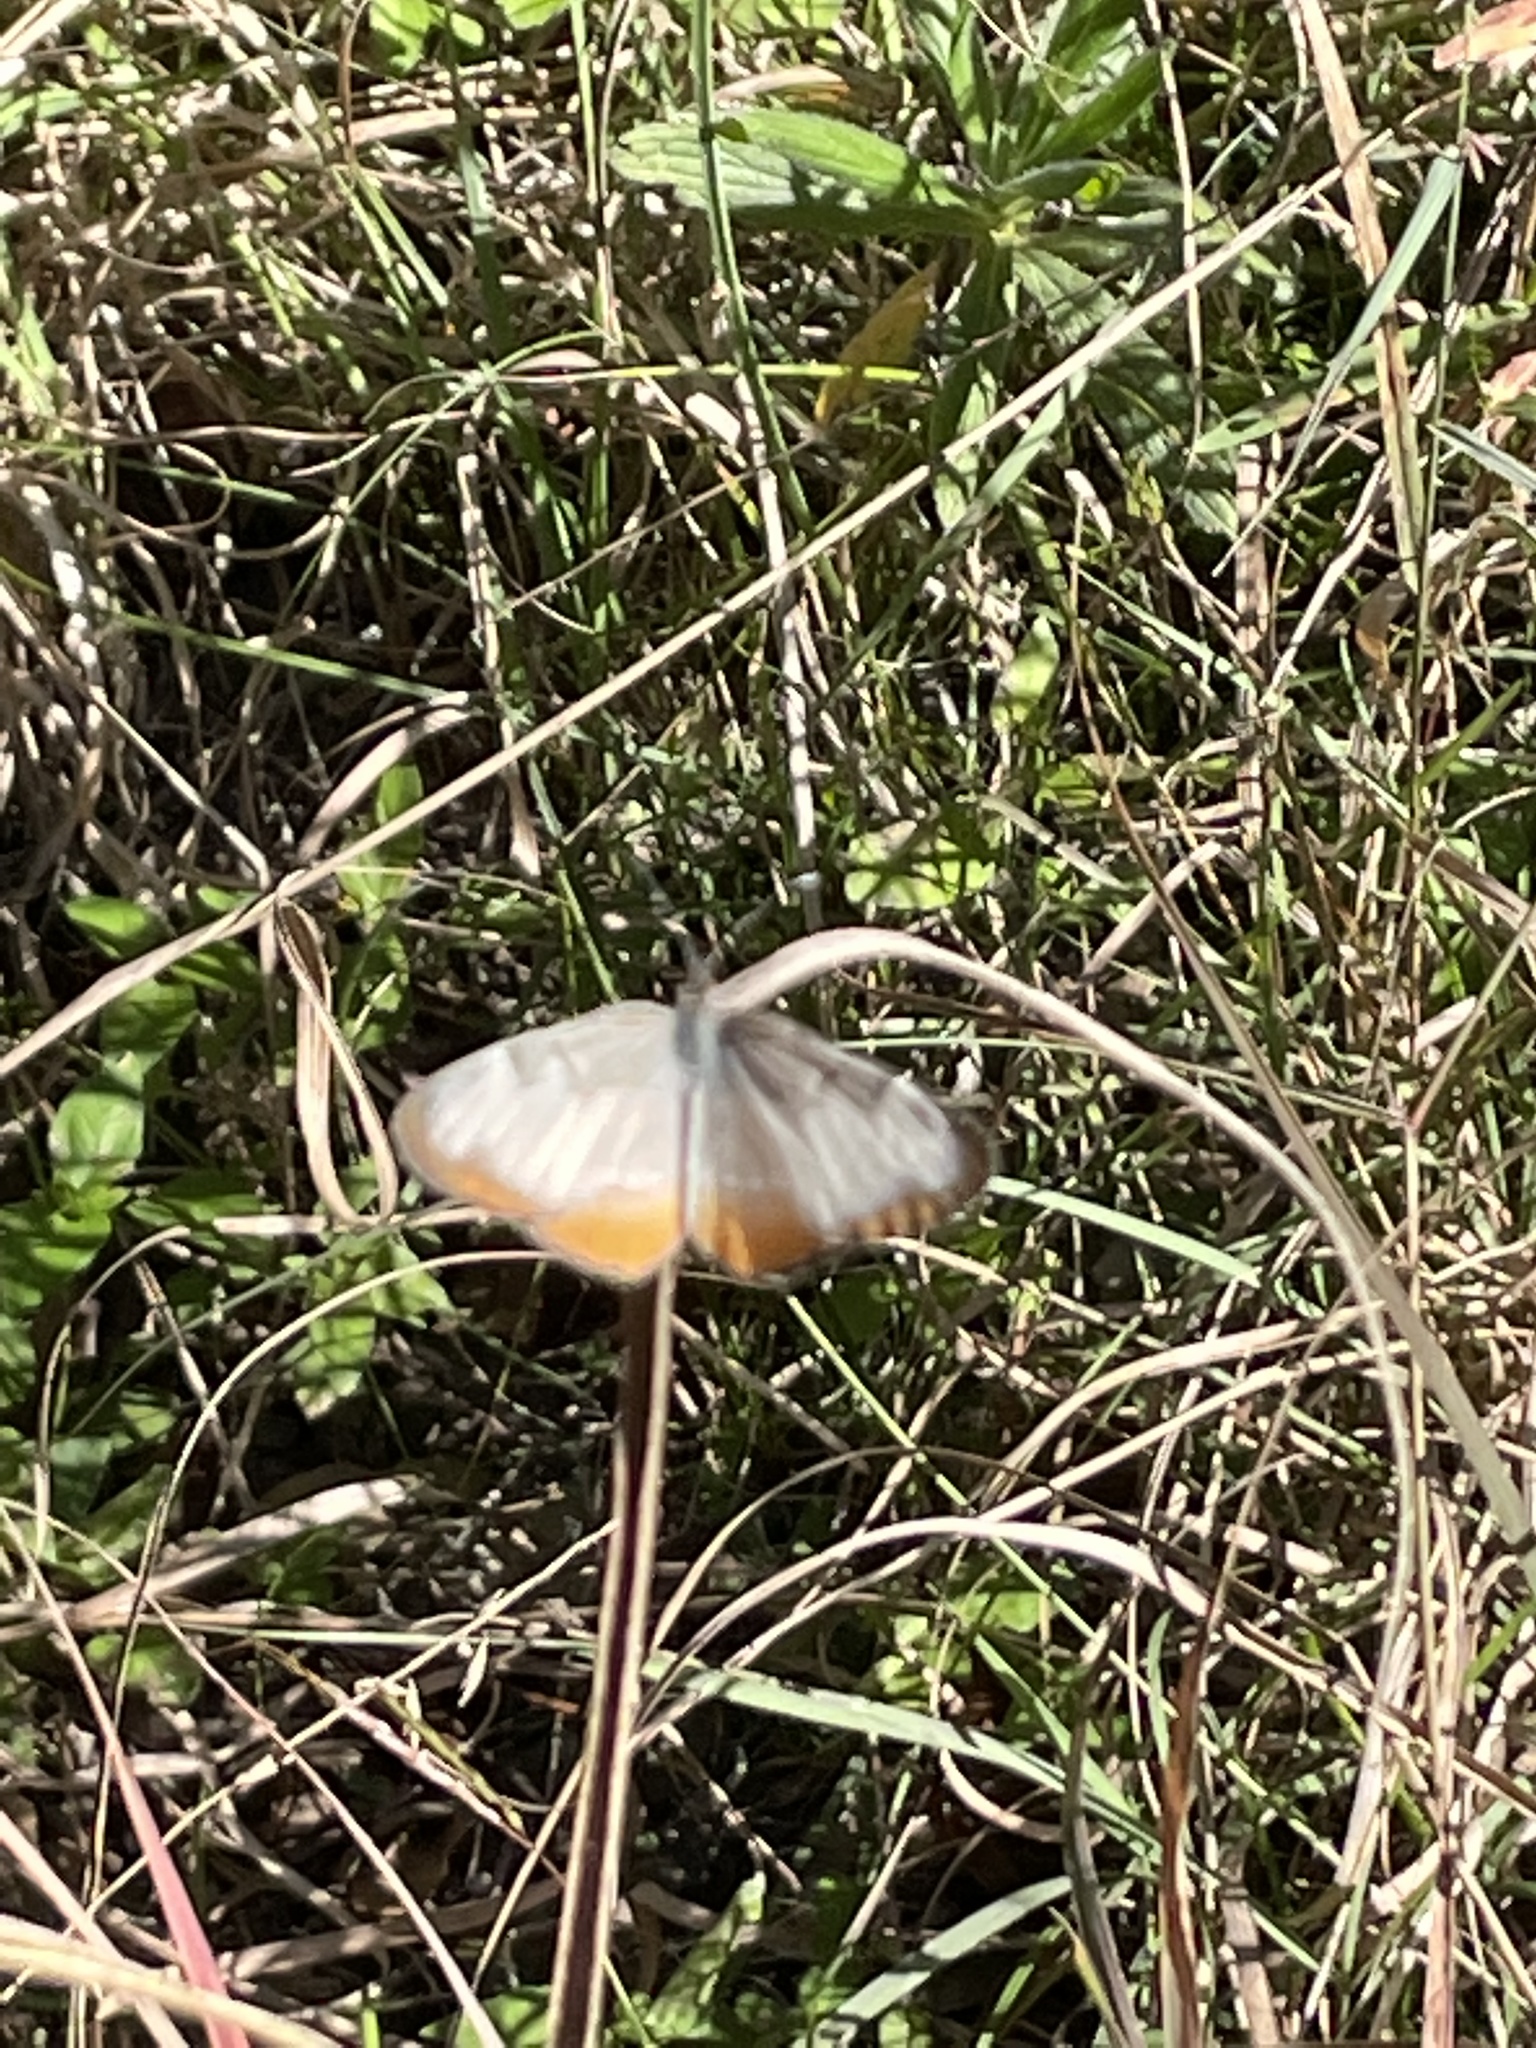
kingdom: Animalia
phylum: Arthropoda
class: Insecta
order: Lepidoptera
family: Nymphalidae
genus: Mestra
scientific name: Mestra amymone
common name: Common mestra
